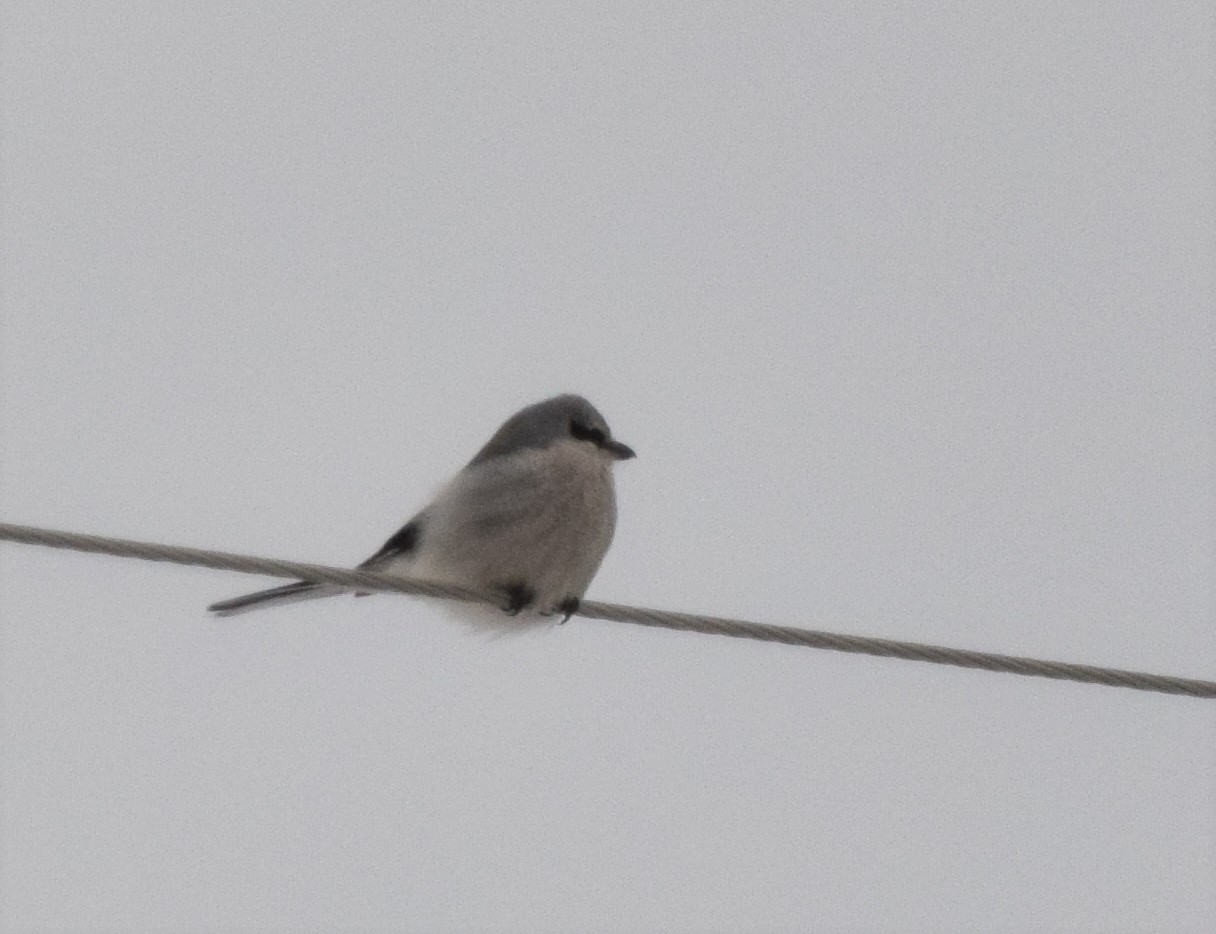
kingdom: Animalia
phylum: Chordata
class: Aves
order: Passeriformes
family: Laniidae
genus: Lanius
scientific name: Lanius borealis
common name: Northern shrike
